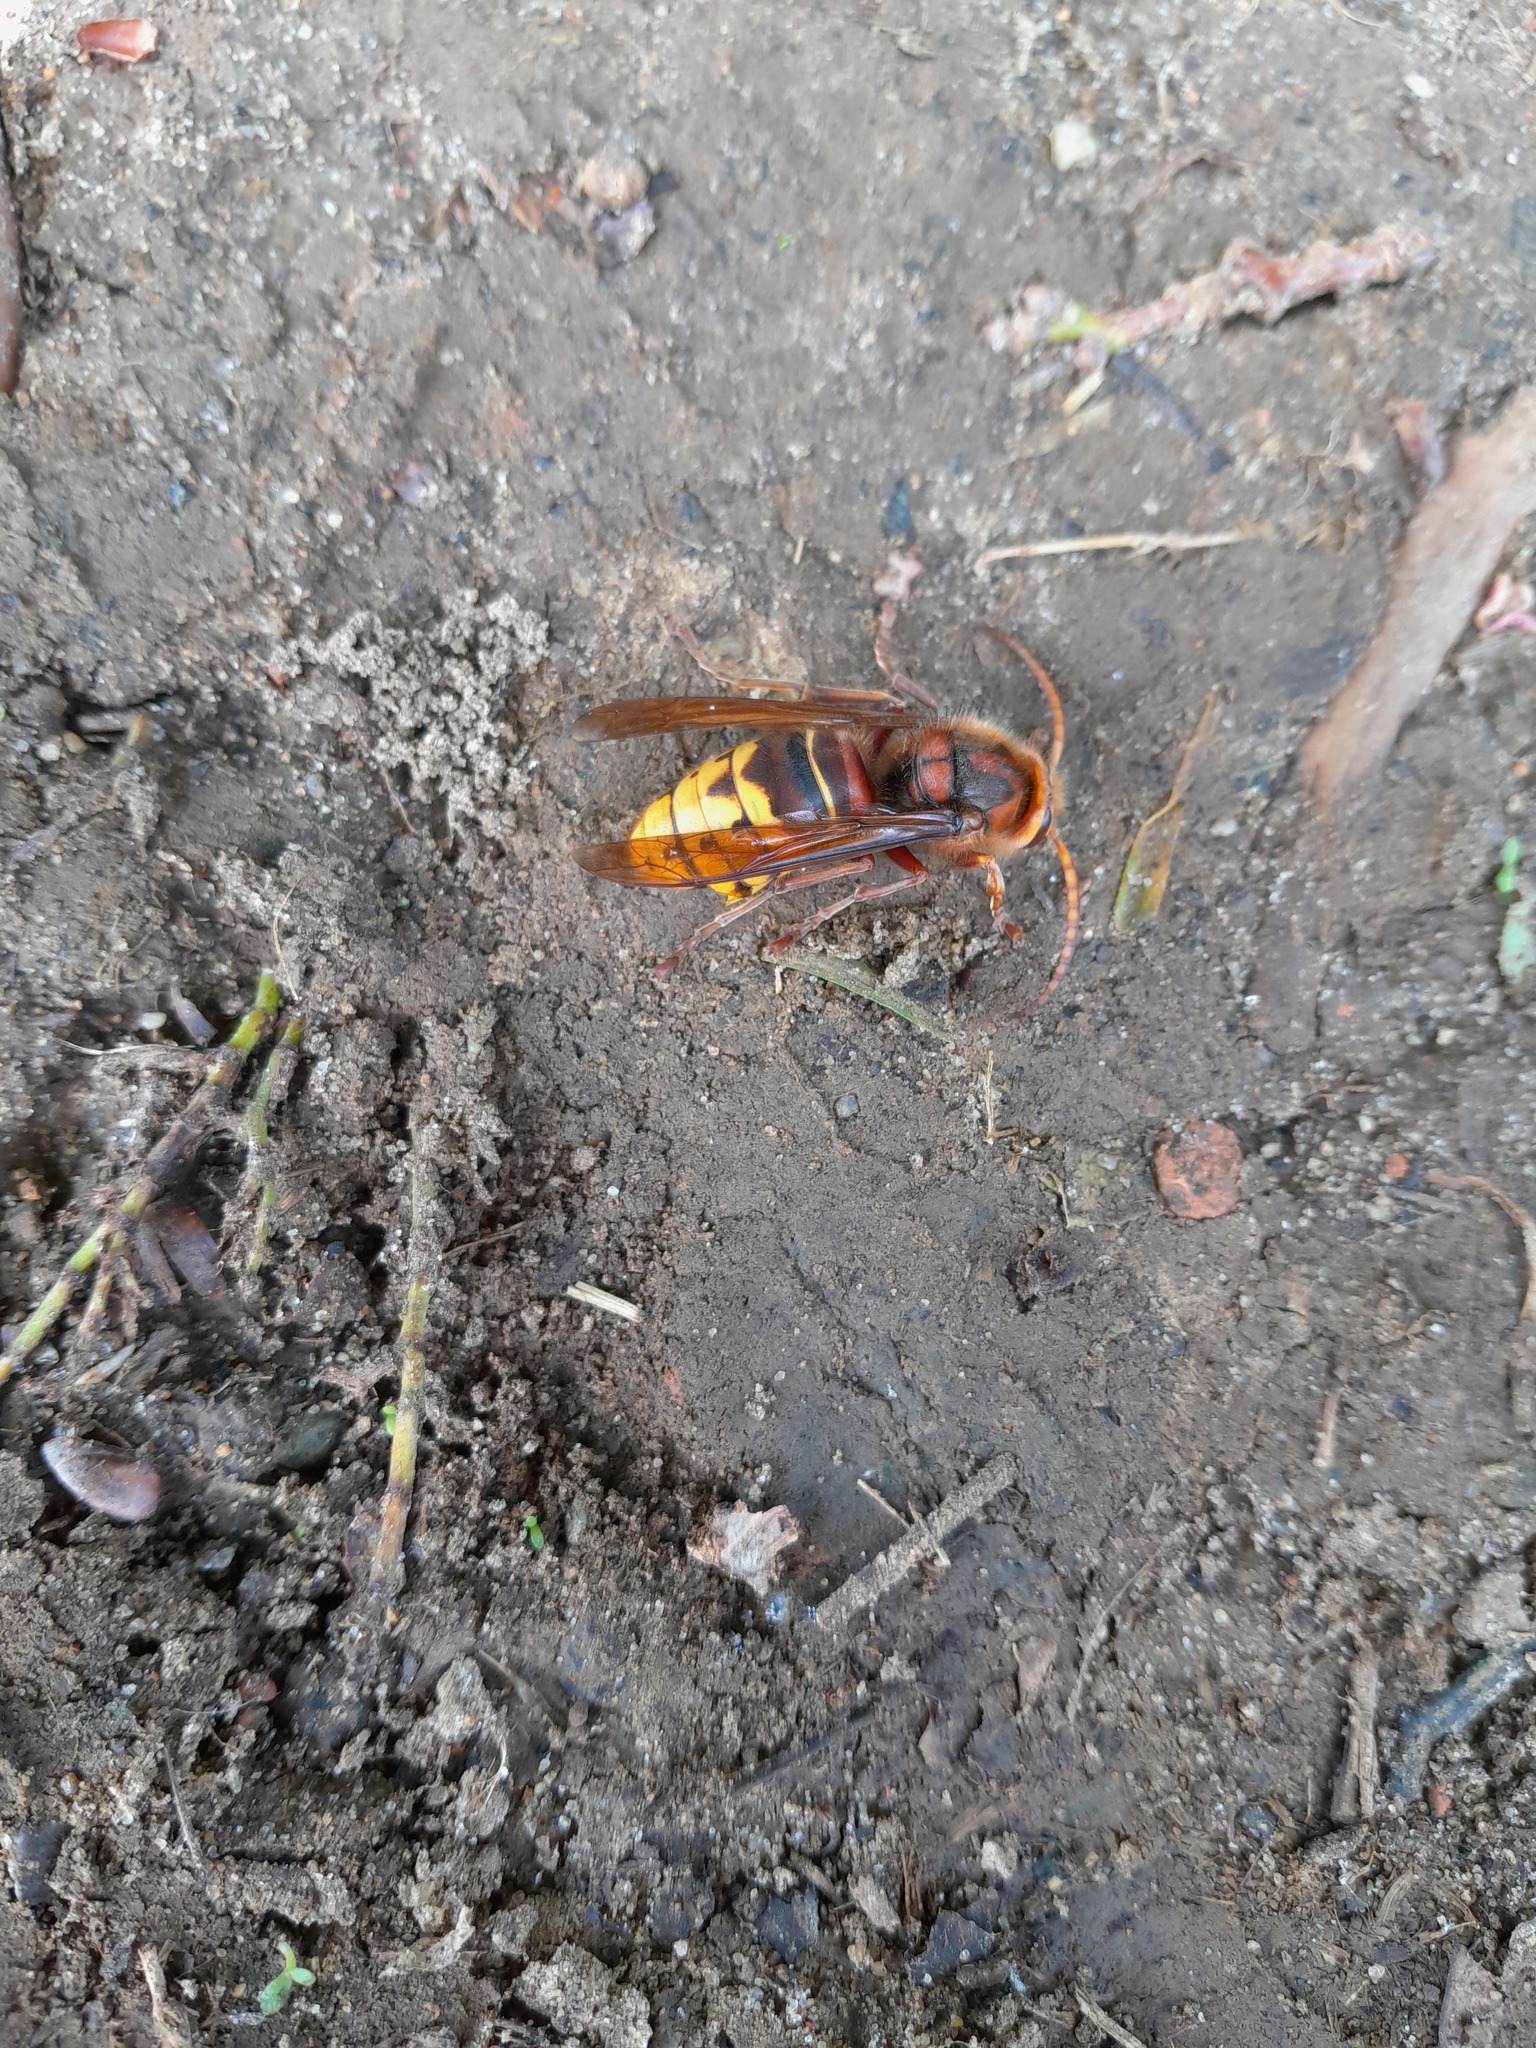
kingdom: Animalia
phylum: Arthropoda
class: Insecta
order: Hymenoptera
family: Vespidae
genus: Vespa
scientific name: Vespa crabro
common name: Hornet
